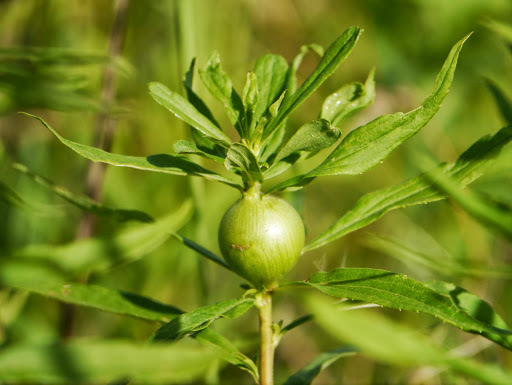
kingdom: Plantae
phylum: Tracheophyta
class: Magnoliopsida
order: Asterales
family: Asteraceae
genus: Solidago
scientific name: Solidago altissima
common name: Late goldenrod
